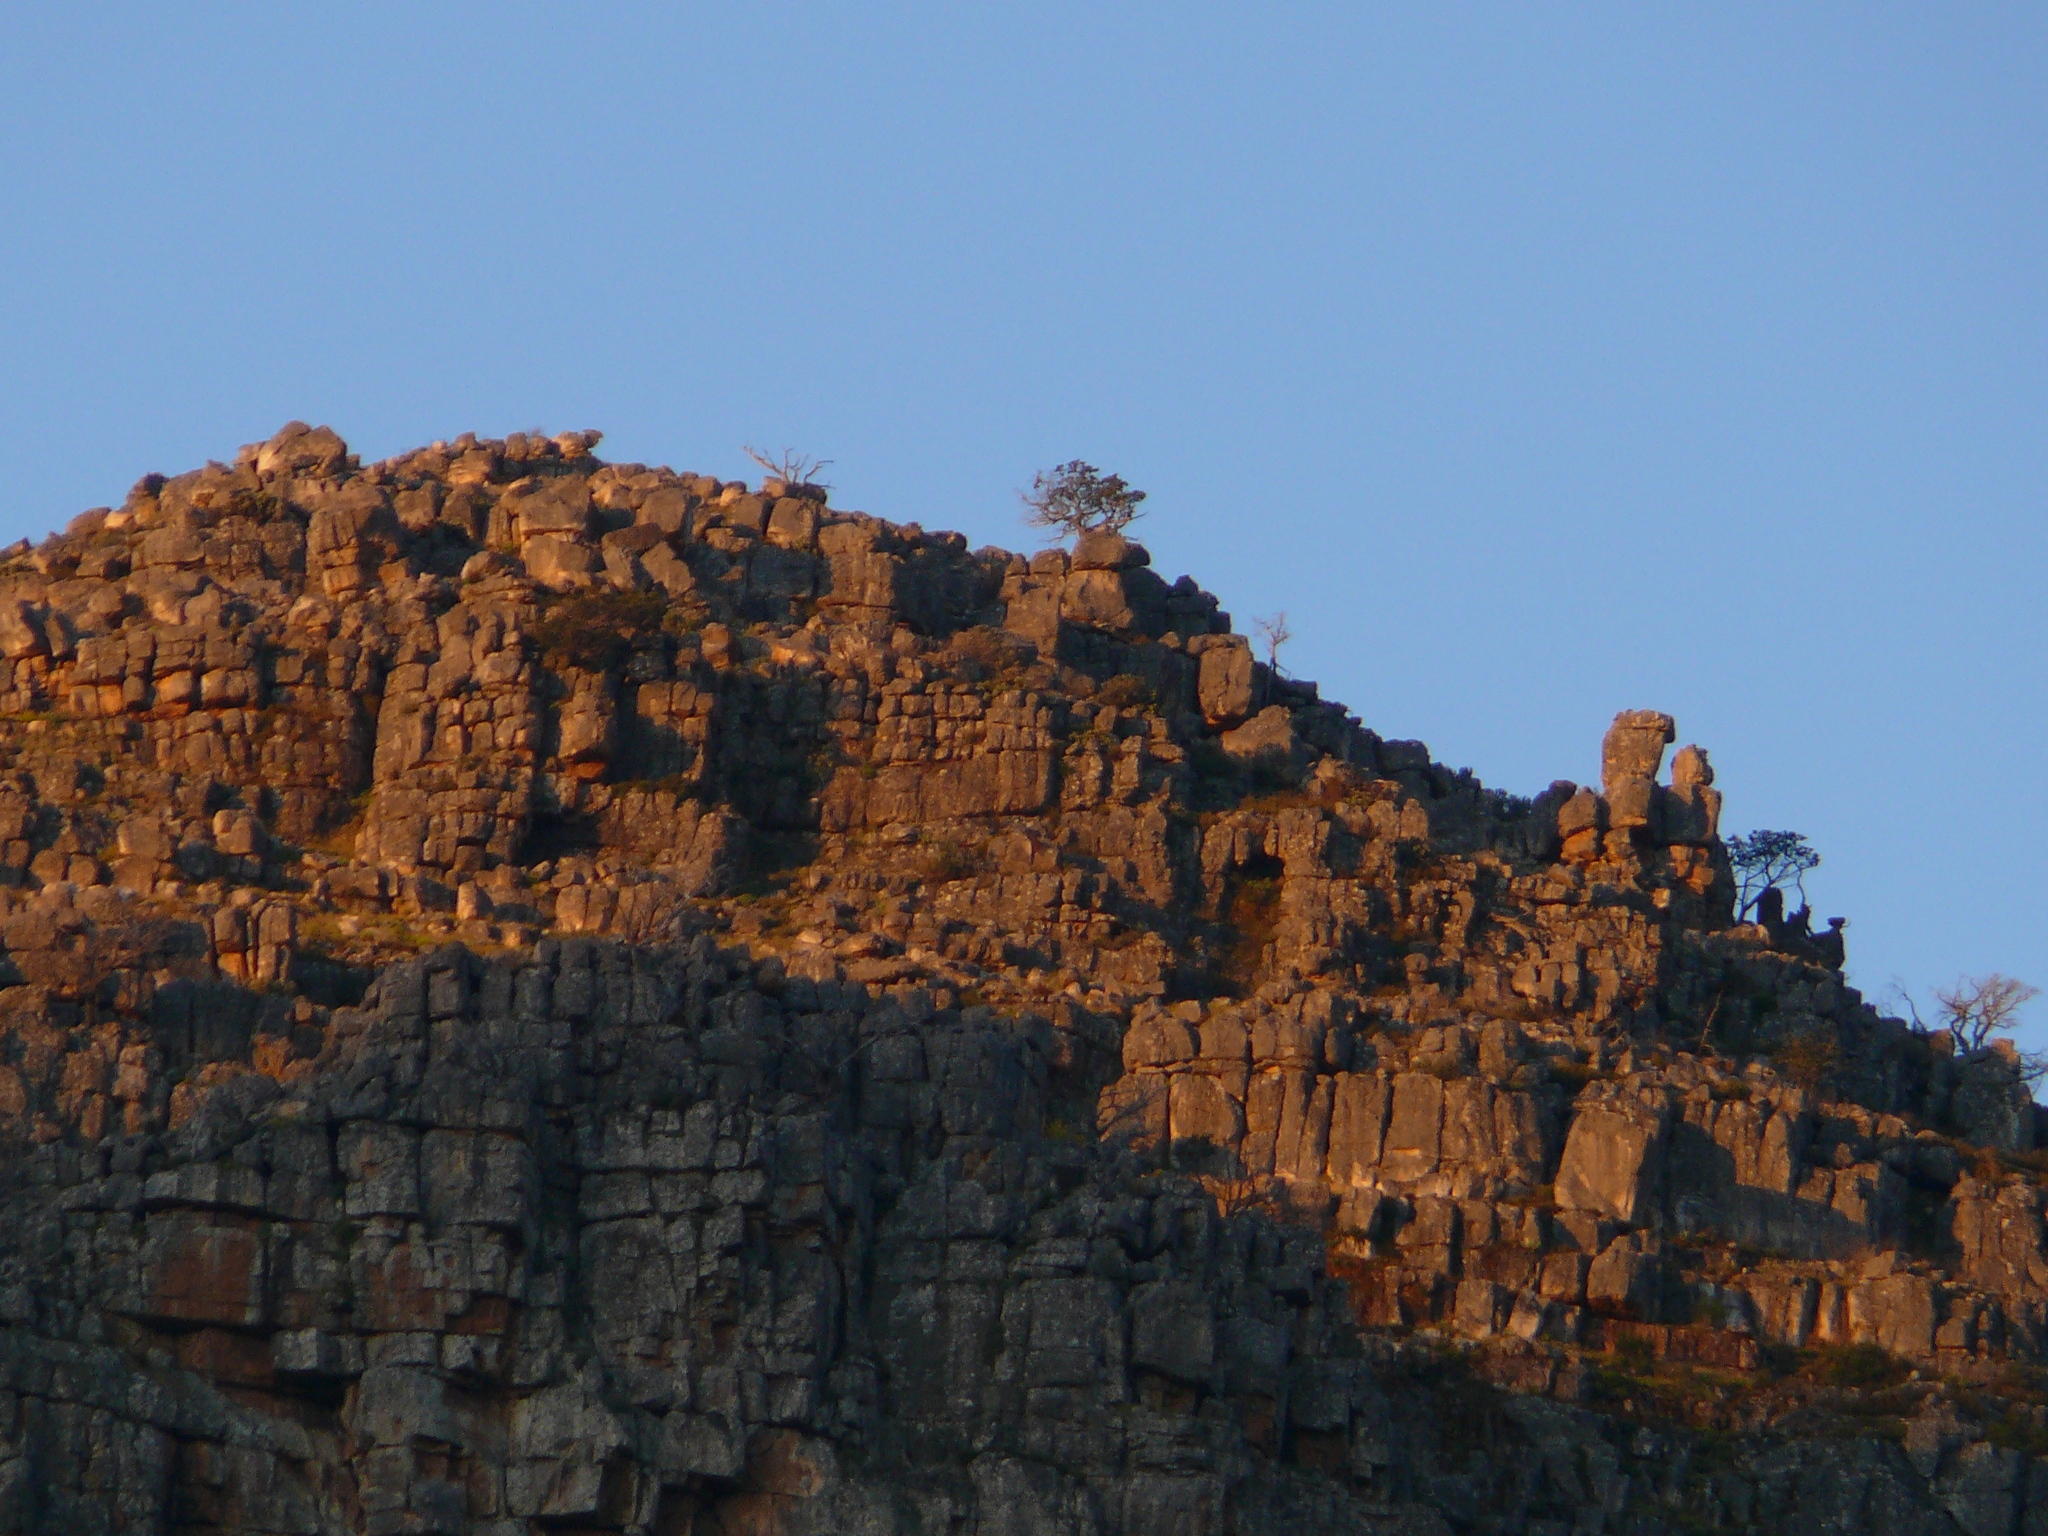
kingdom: Plantae
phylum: Tracheophyta
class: Pinopsida
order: Pinales
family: Cupressaceae
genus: Widdringtonia
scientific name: Widdringtonia nodiflora
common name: Cape cypress
